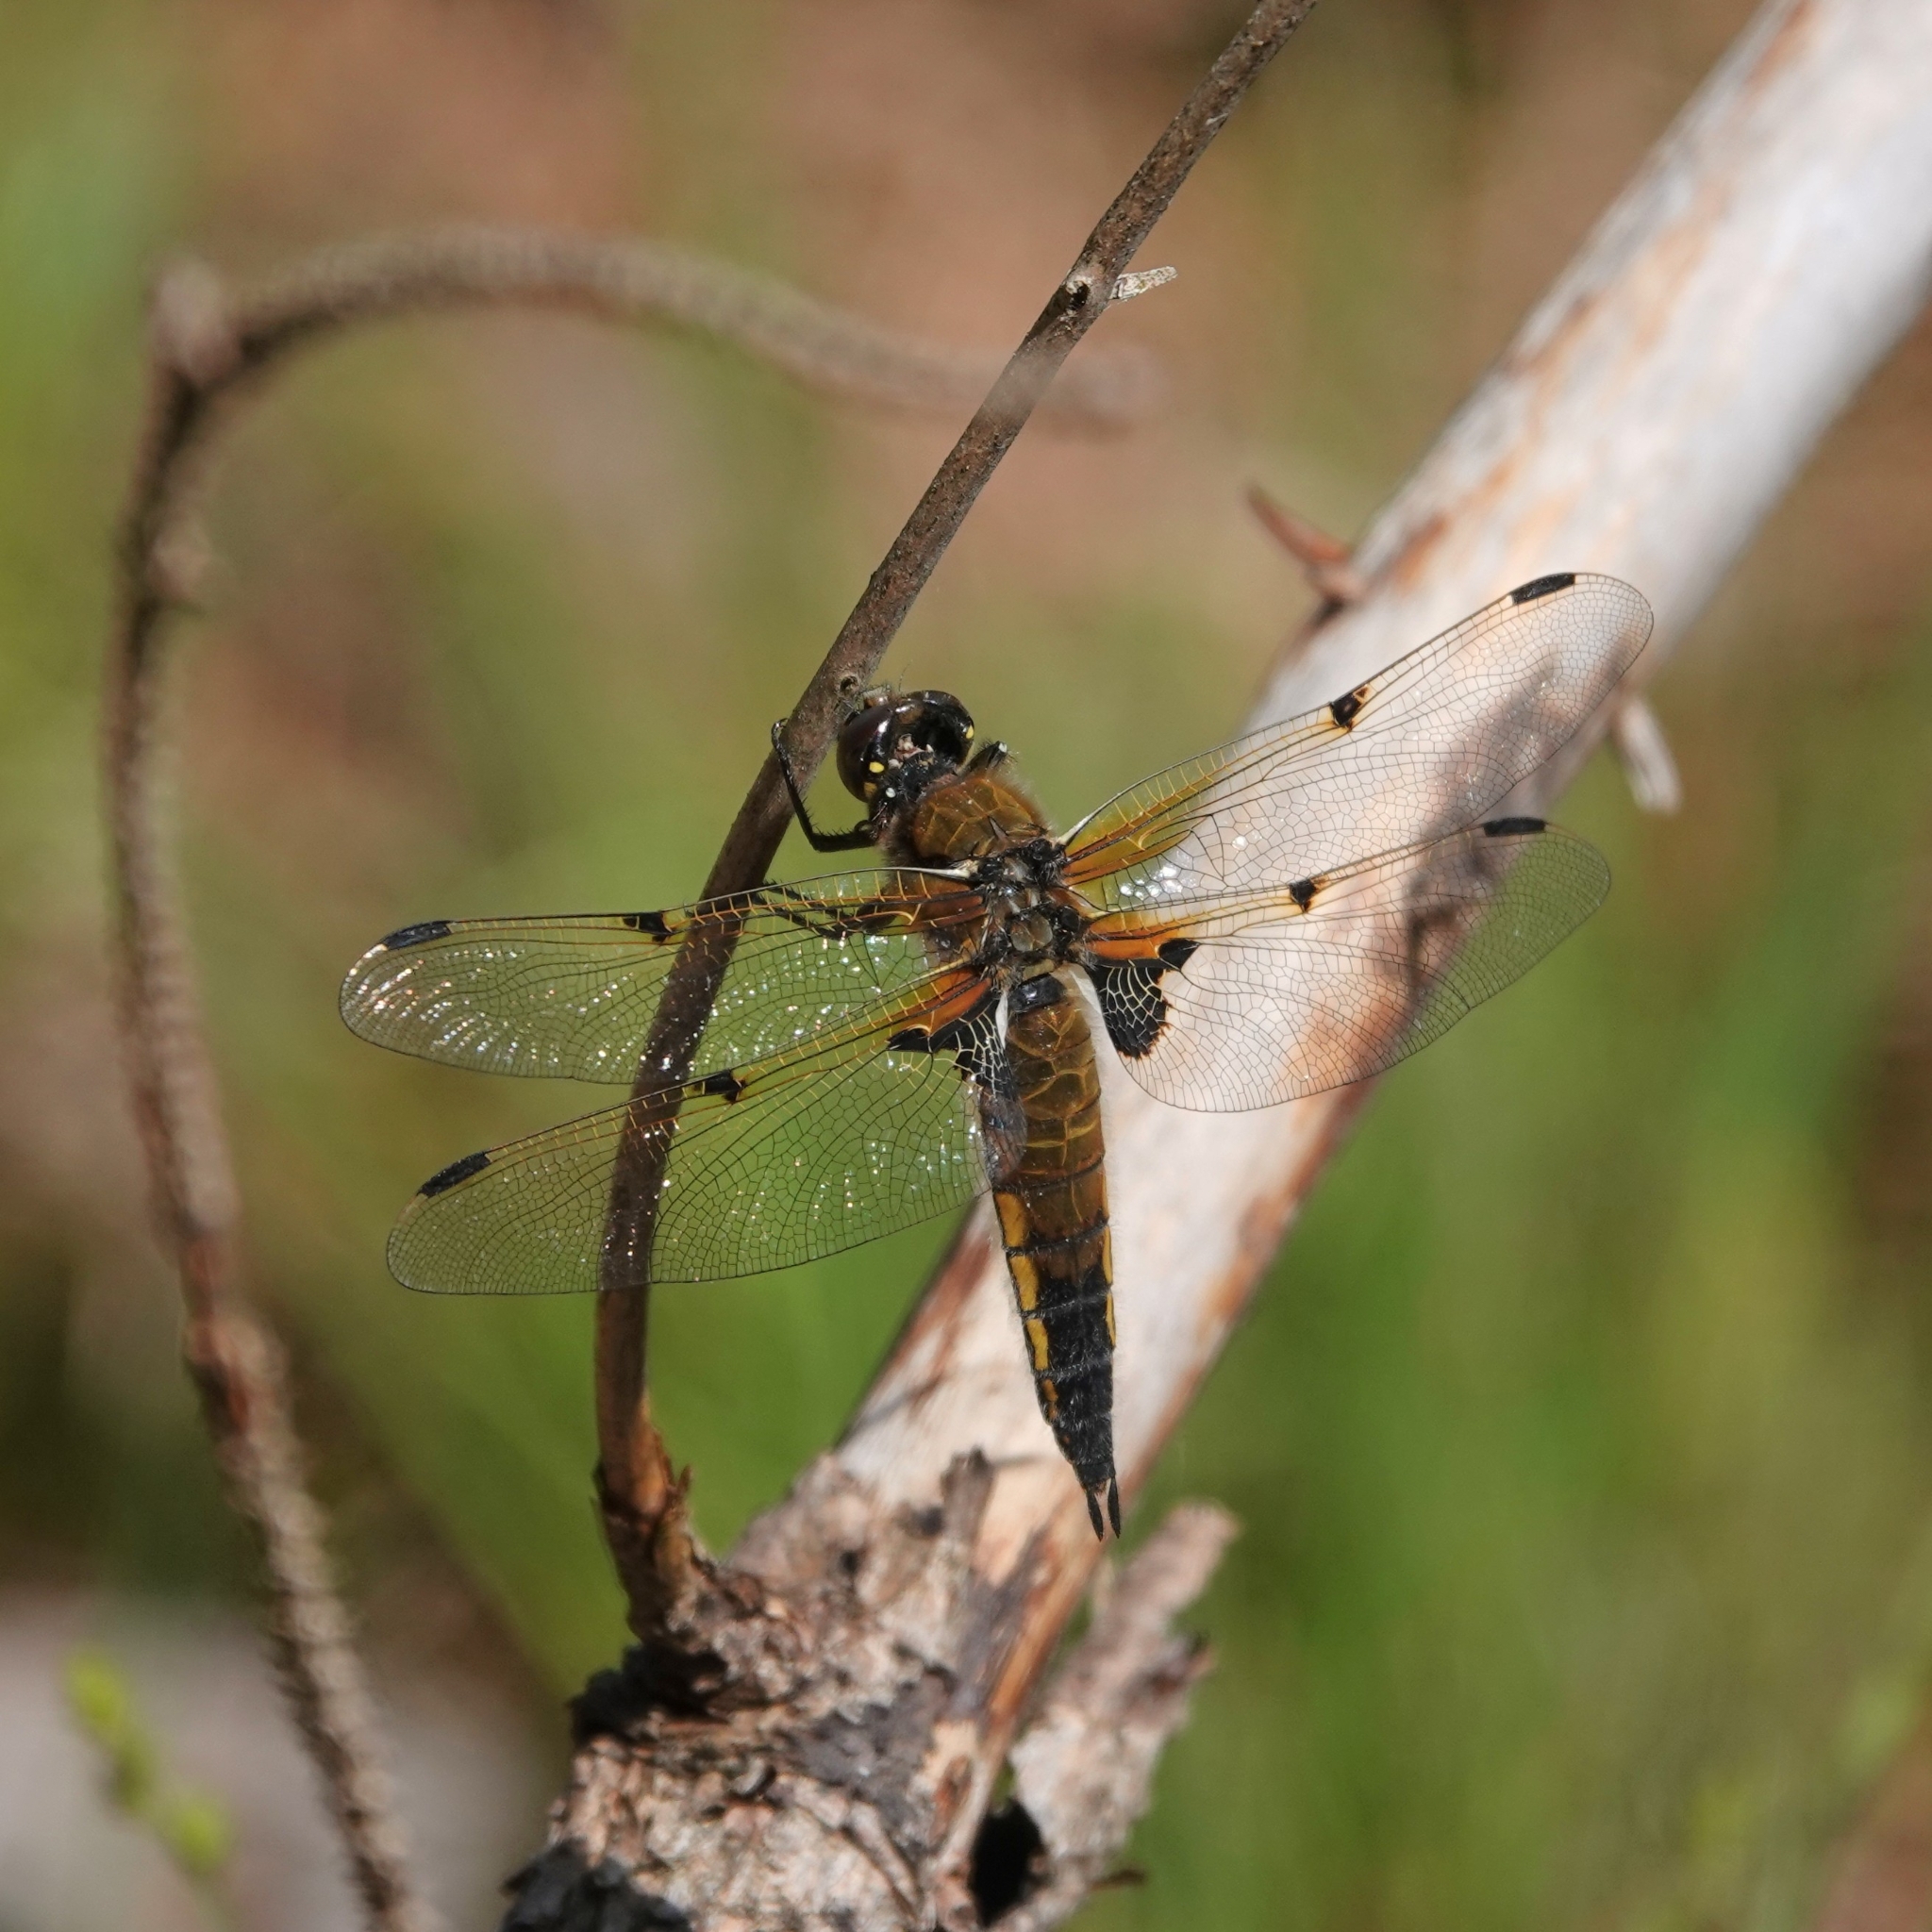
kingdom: Animalia
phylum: Arthropoda
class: Insecta
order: Odonata
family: Libellulidae
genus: Libellula
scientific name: Libellula quadrimaculata
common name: Four-spotted chaser
